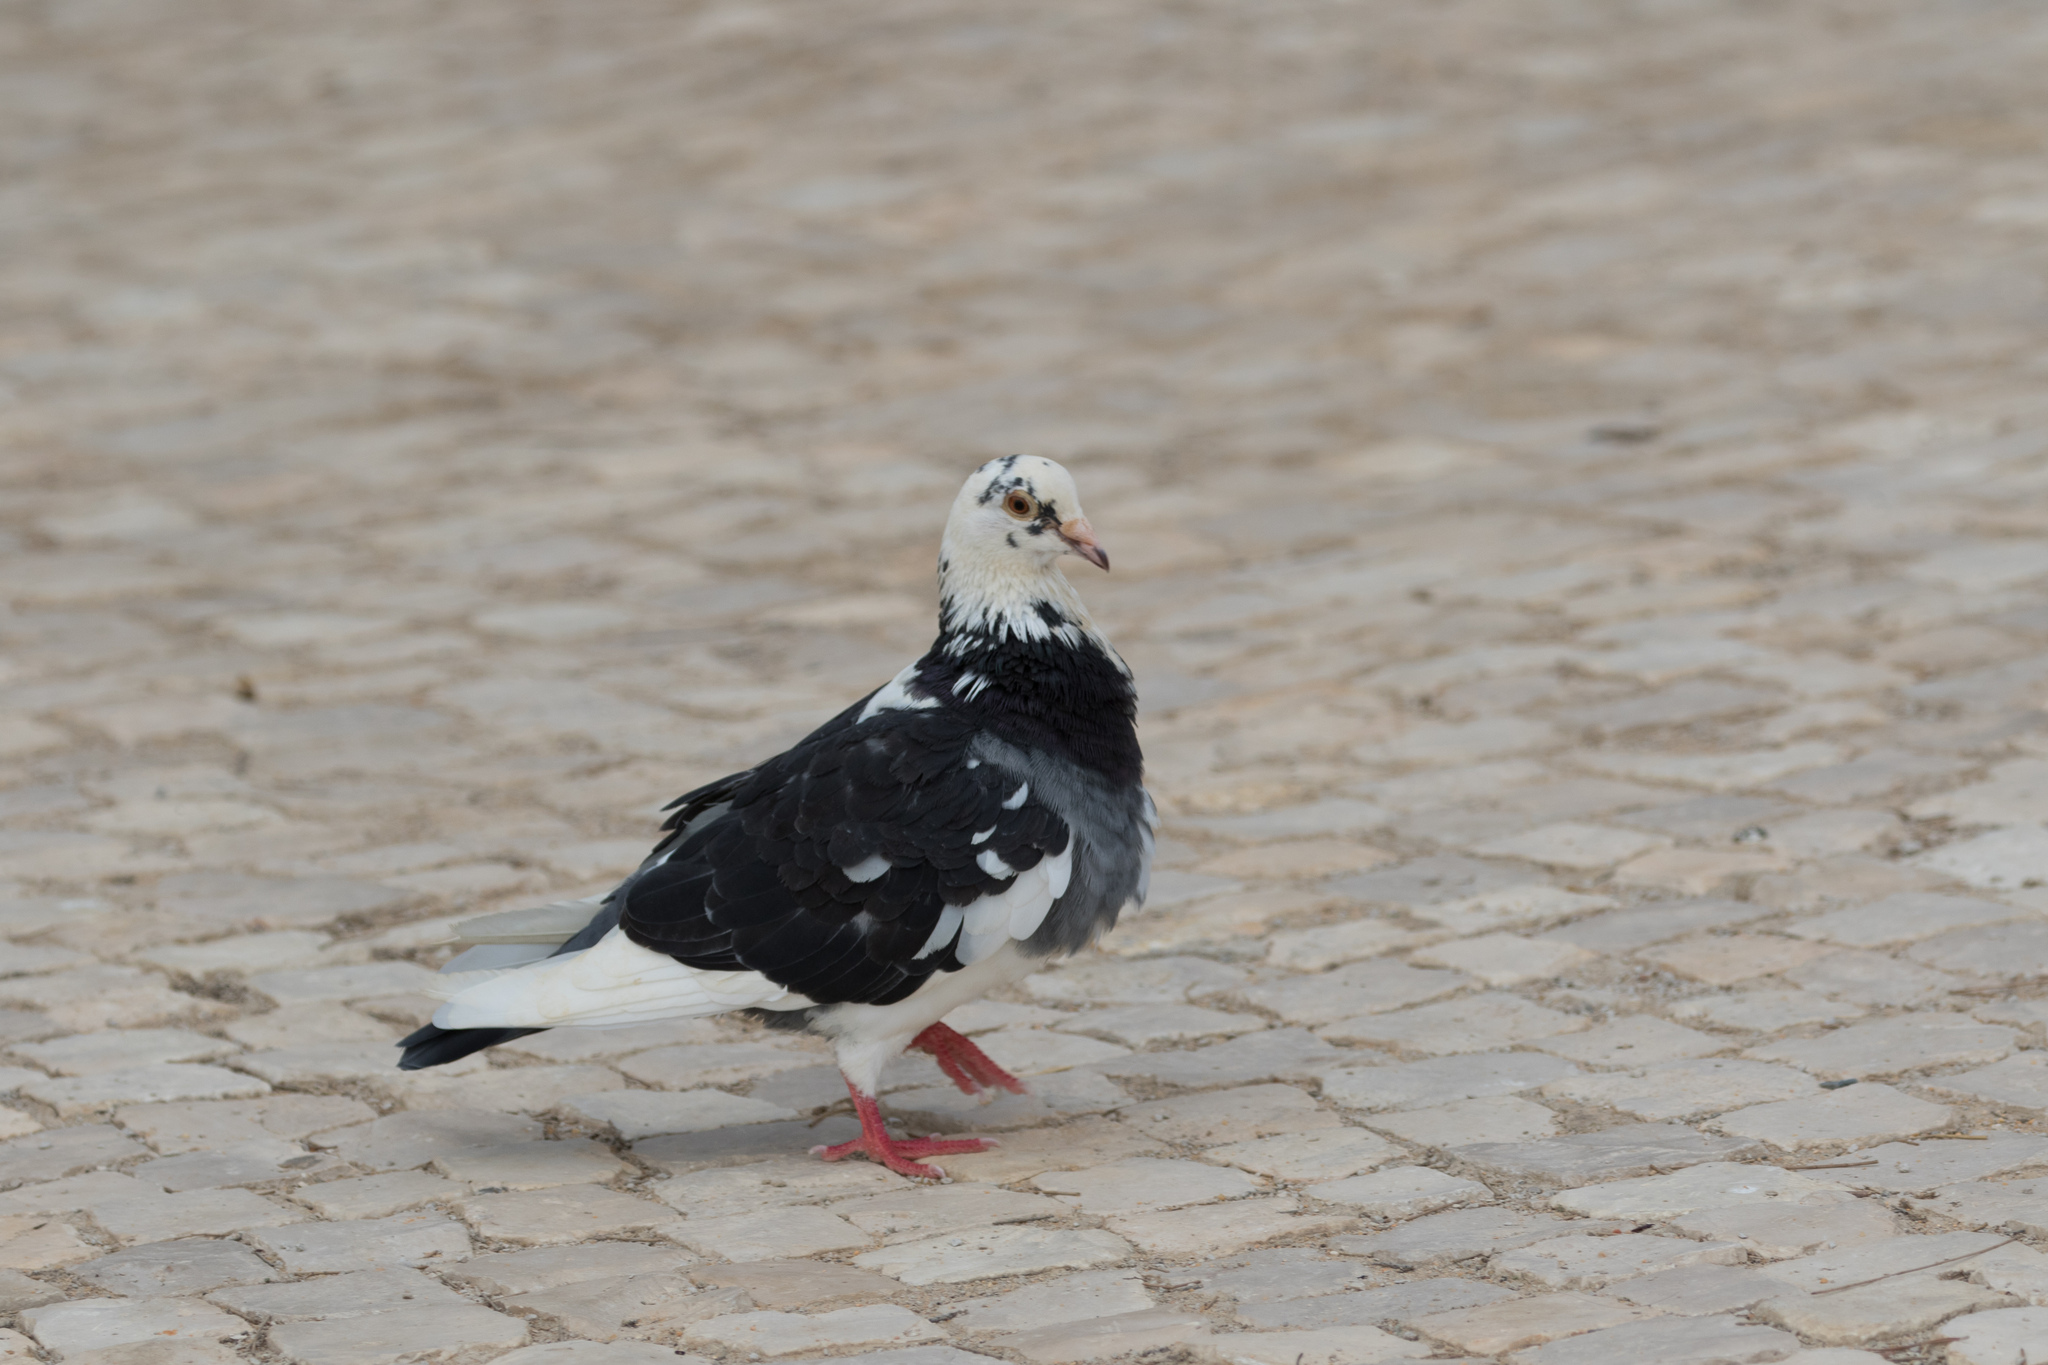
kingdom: Animalia
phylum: Chordata
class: Aves
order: Columbiformes
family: Columbidae
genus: Columba
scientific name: Columba livia
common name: Rock pigeon
